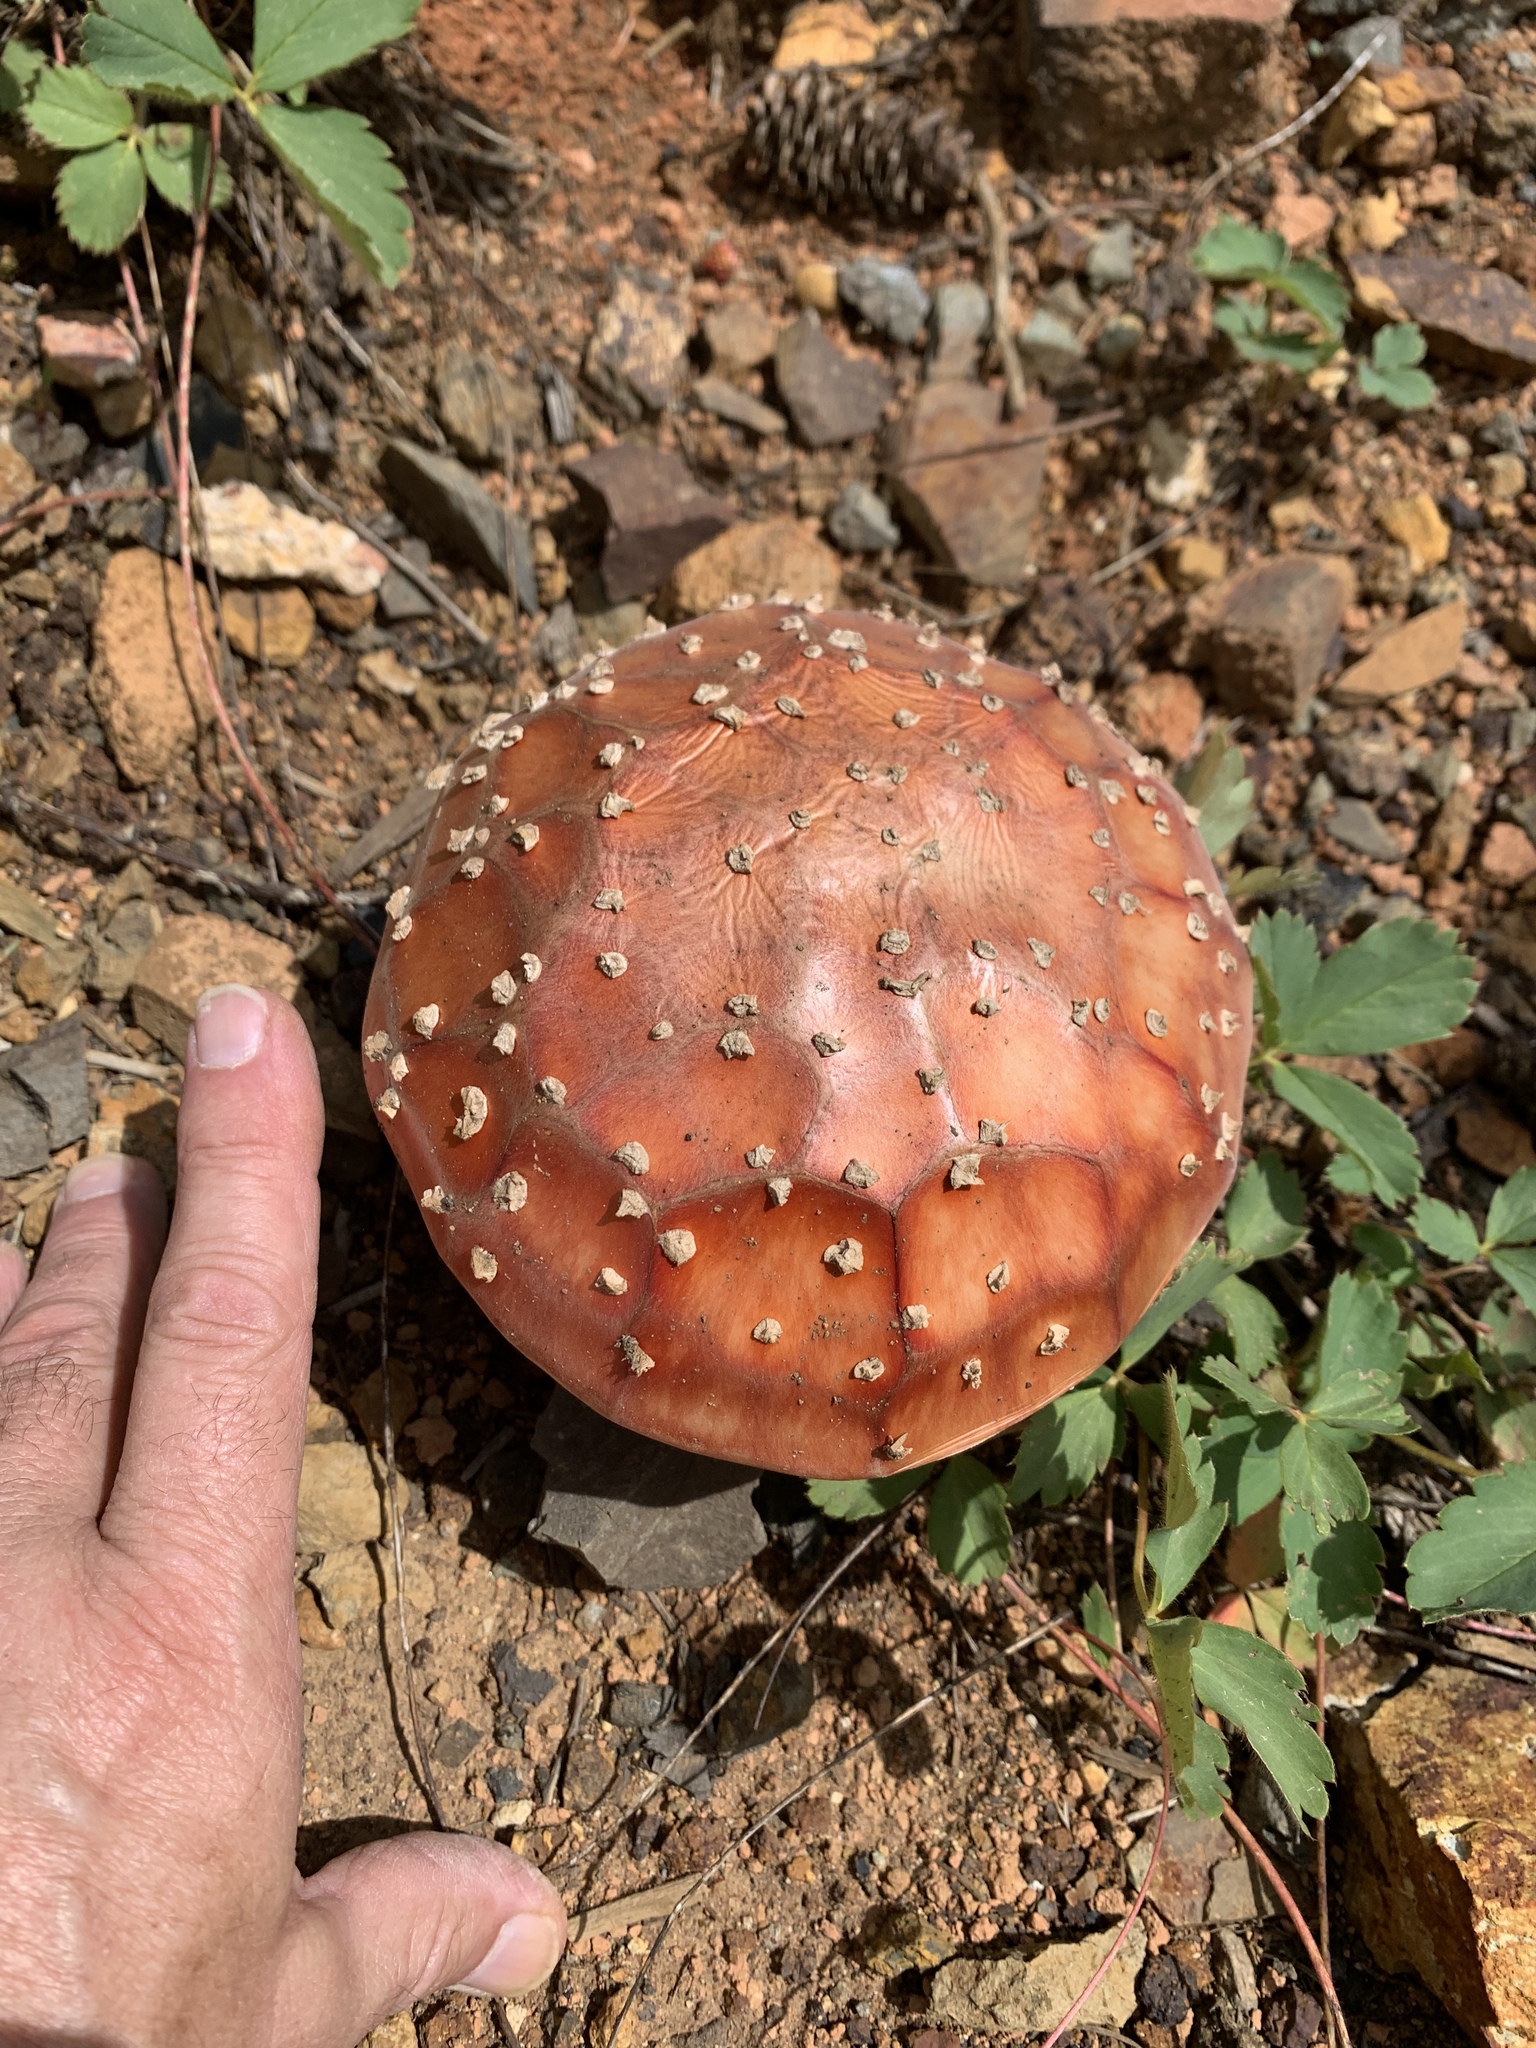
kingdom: Fungi
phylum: Basidiomycota
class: Agaricomycetes
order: Agaricales
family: Amanitaceae
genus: Amanita
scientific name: Amanita muscaria
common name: Fly agaric
